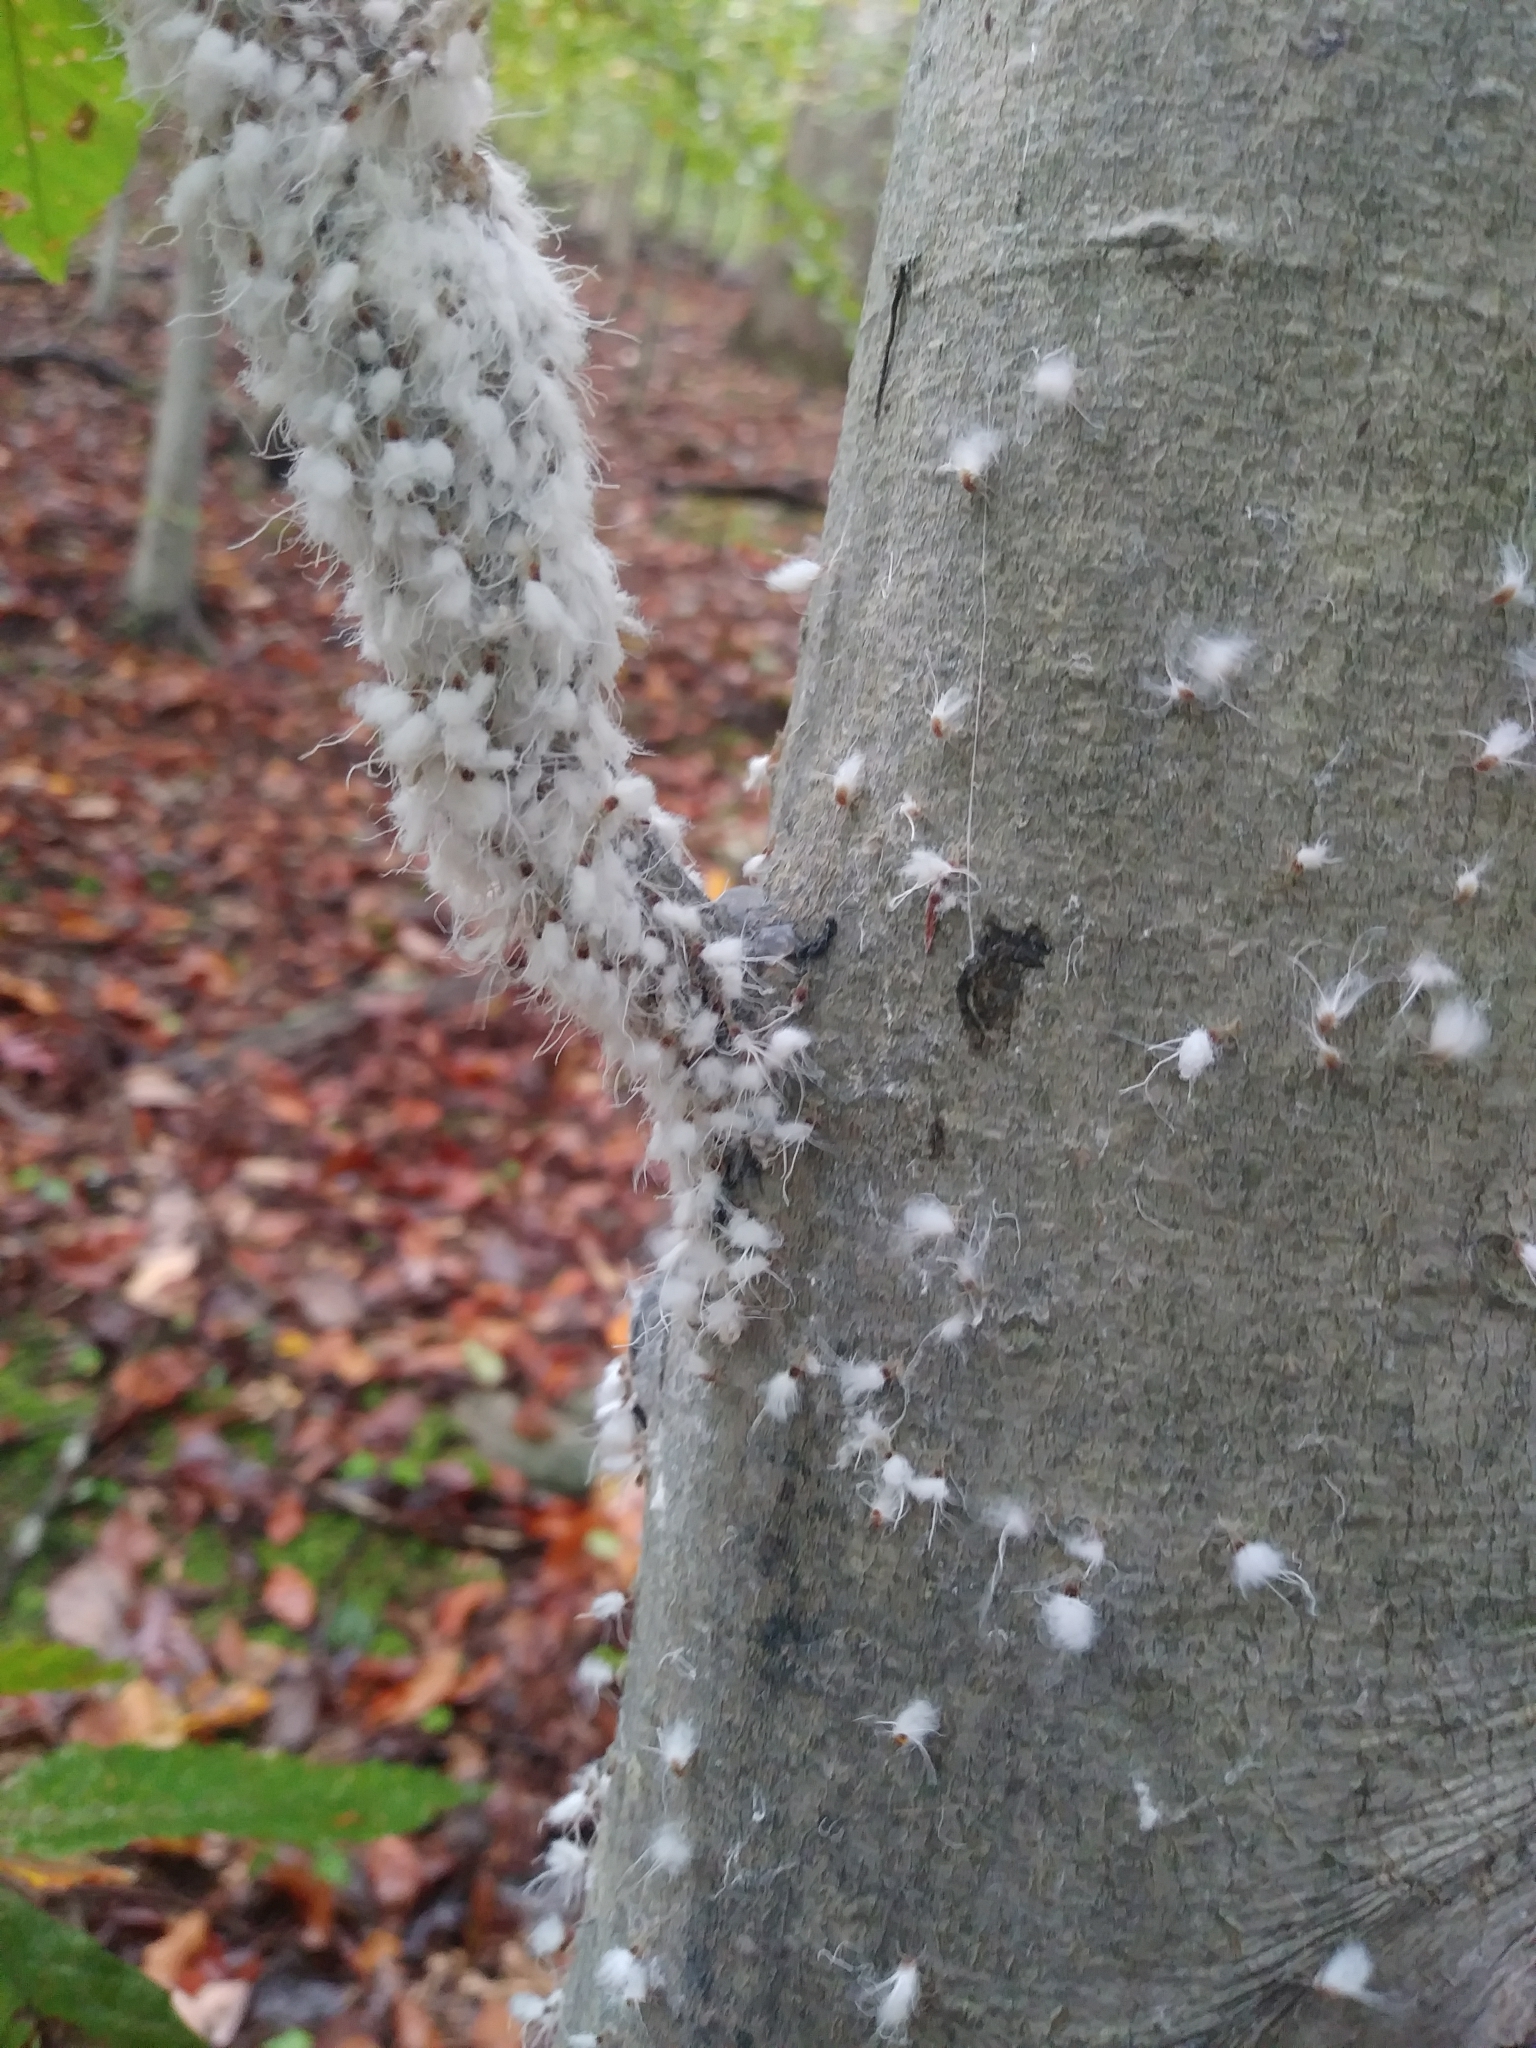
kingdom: Animalia
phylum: Arthropoda
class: Insecta
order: Hemiptera
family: Aphididae
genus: Grylloprociphilus
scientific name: Grylloprociphilus imbricator
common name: Beech blight aphid
